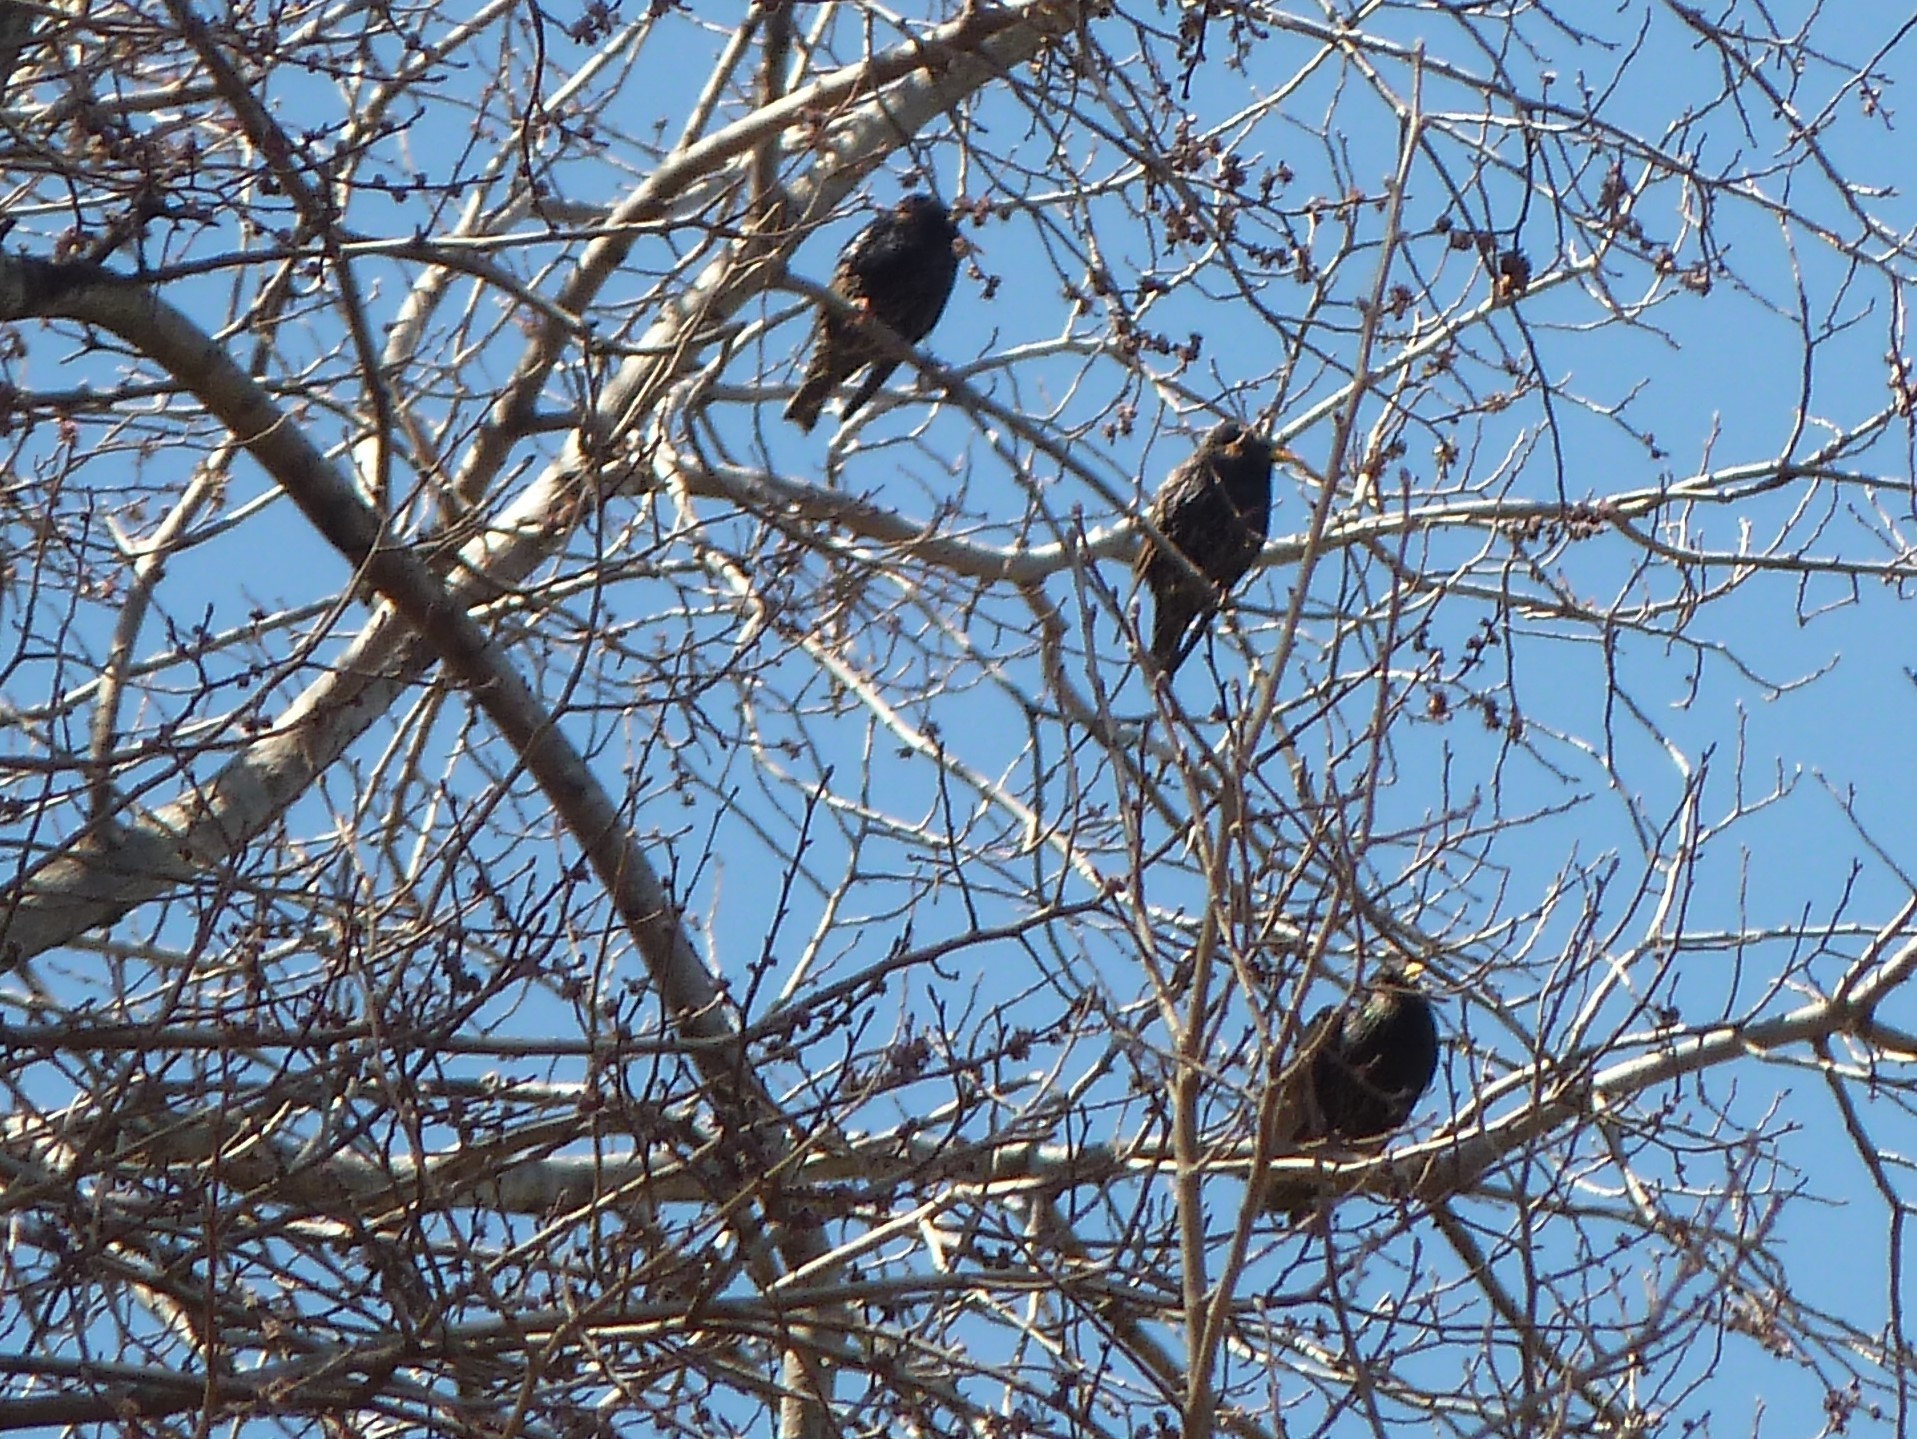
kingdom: Animalia
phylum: Chordata
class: Aves
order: Passeriformes
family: Sturnidae
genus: Sturnus
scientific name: Sturnus vulgaris
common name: Common starling
